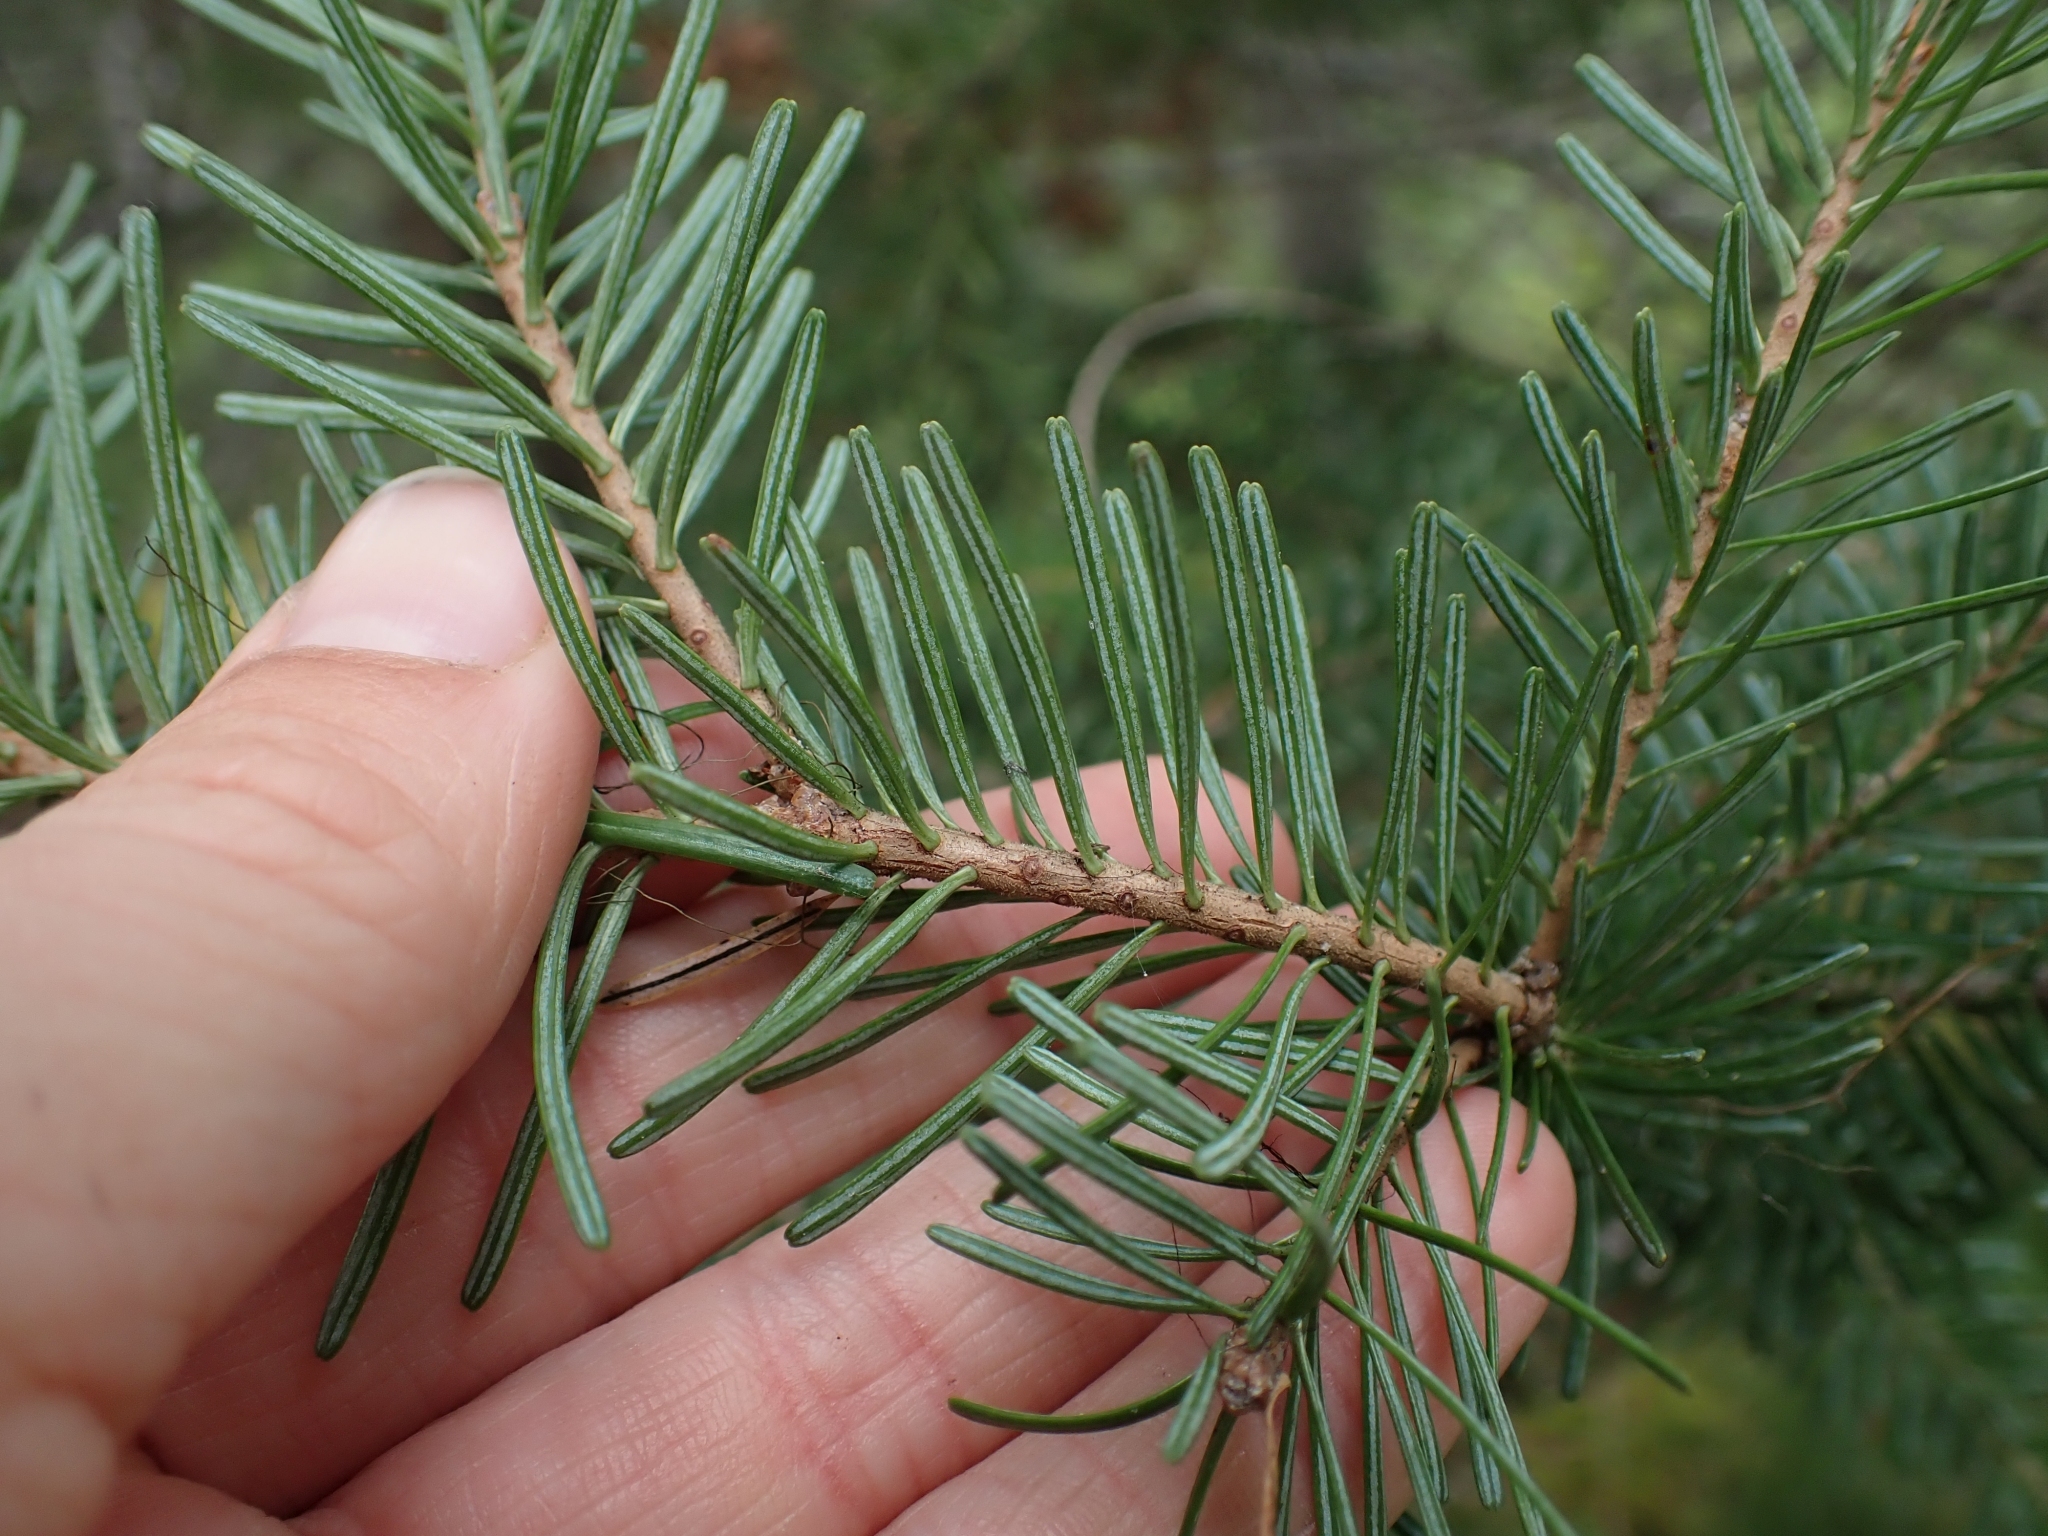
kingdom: Plantae
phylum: Tracheophyta
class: Pinopsida
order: Pinales
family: Pinaceae
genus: Abies
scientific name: Abies lasiocarpa
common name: Subalpine fir
